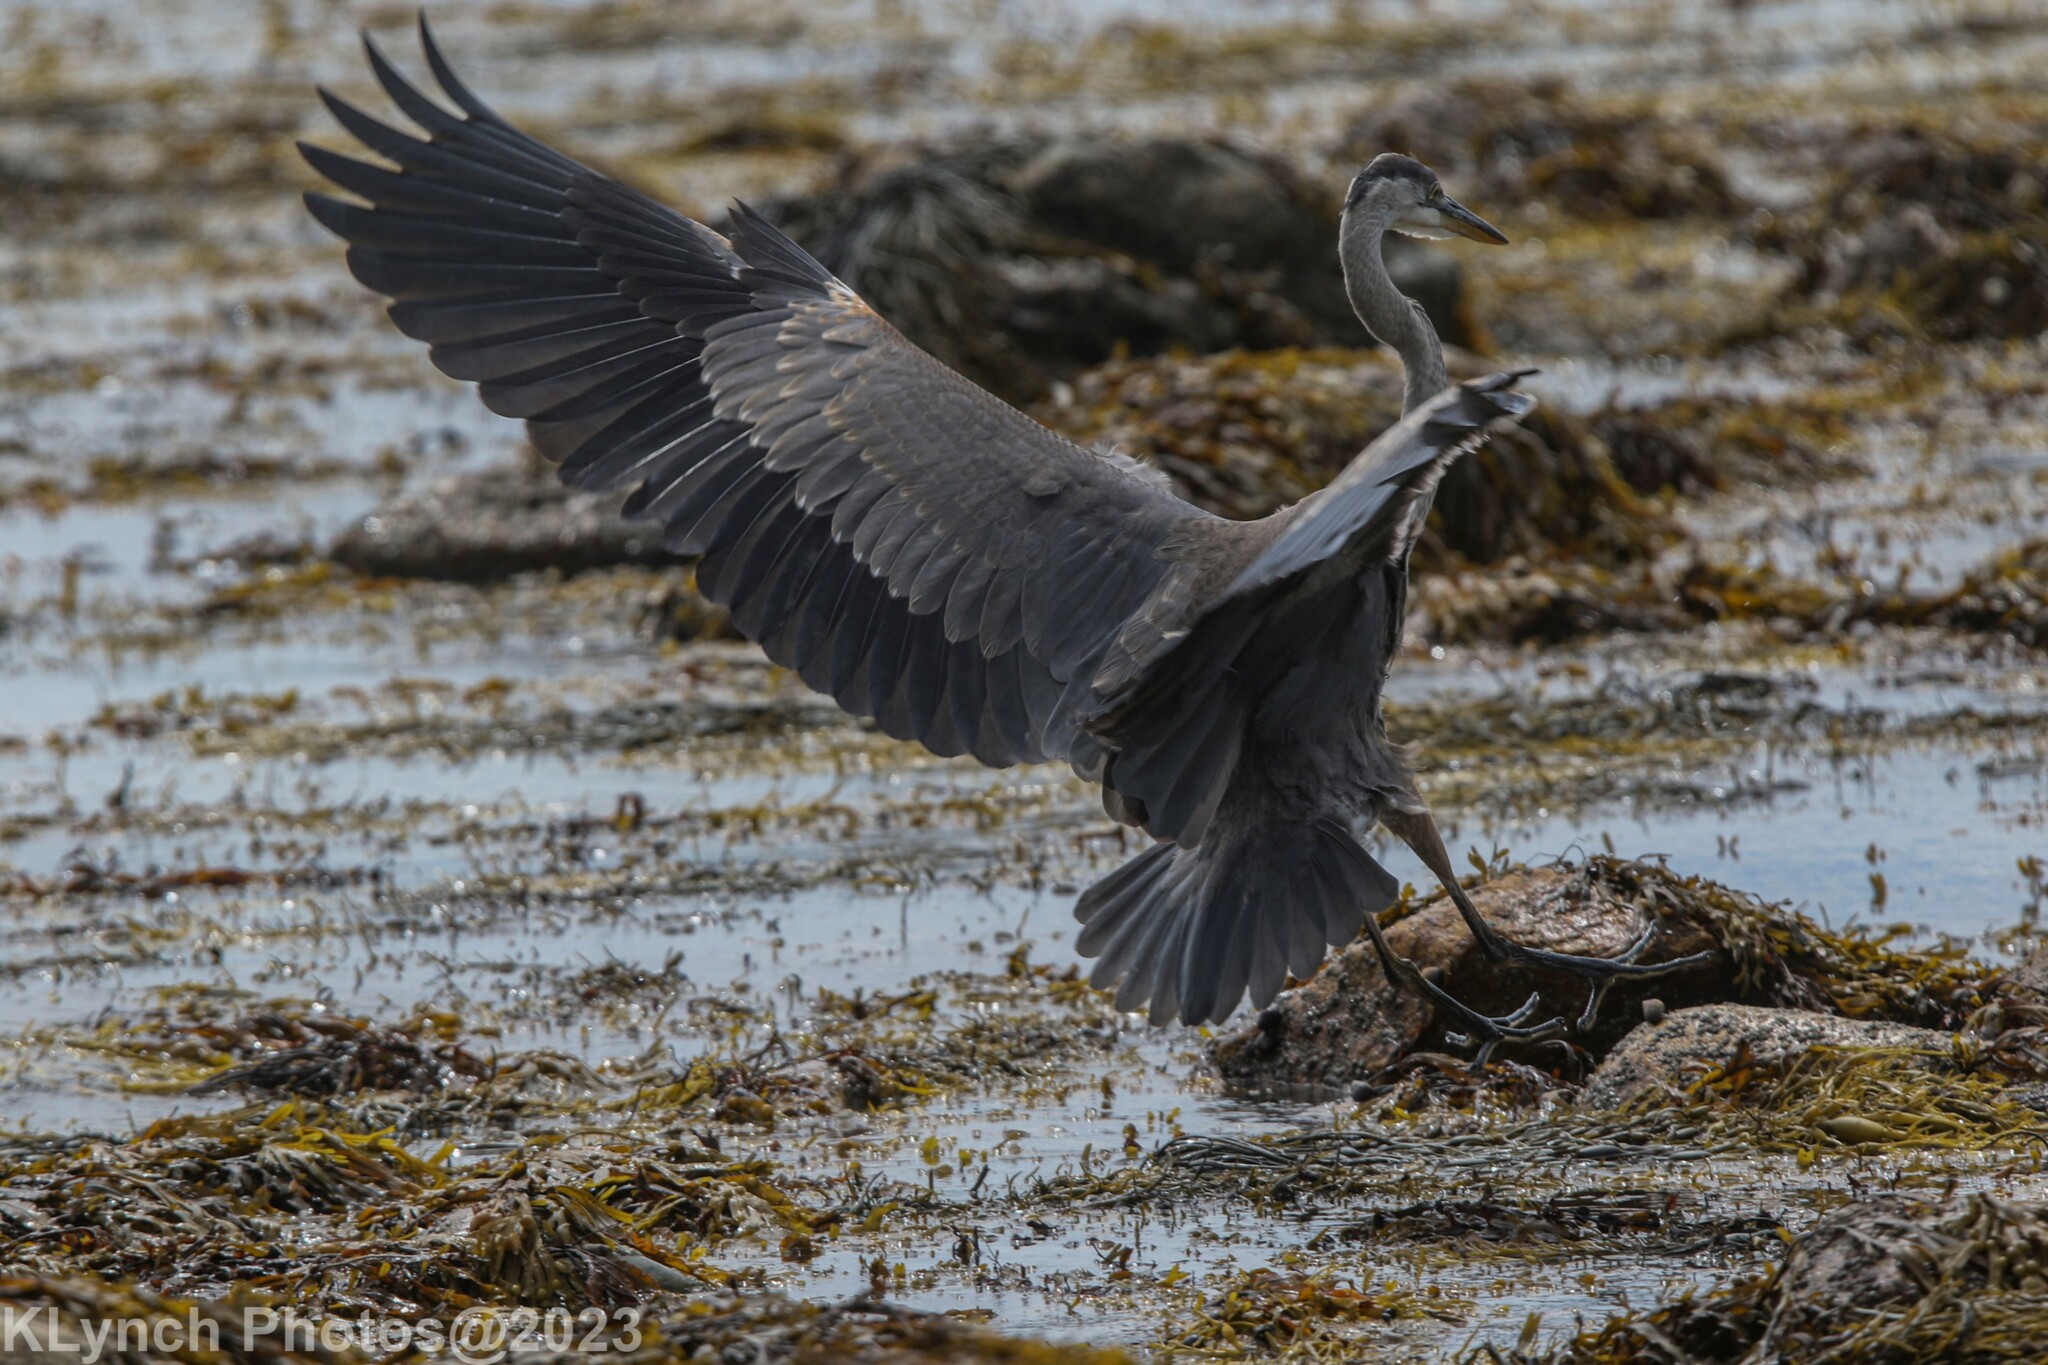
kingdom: Animalia
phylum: Chordata
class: Aves
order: Pelecaniformes
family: Ardeidae
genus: Ardea
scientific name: Ardea herodias
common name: Great blue heron
